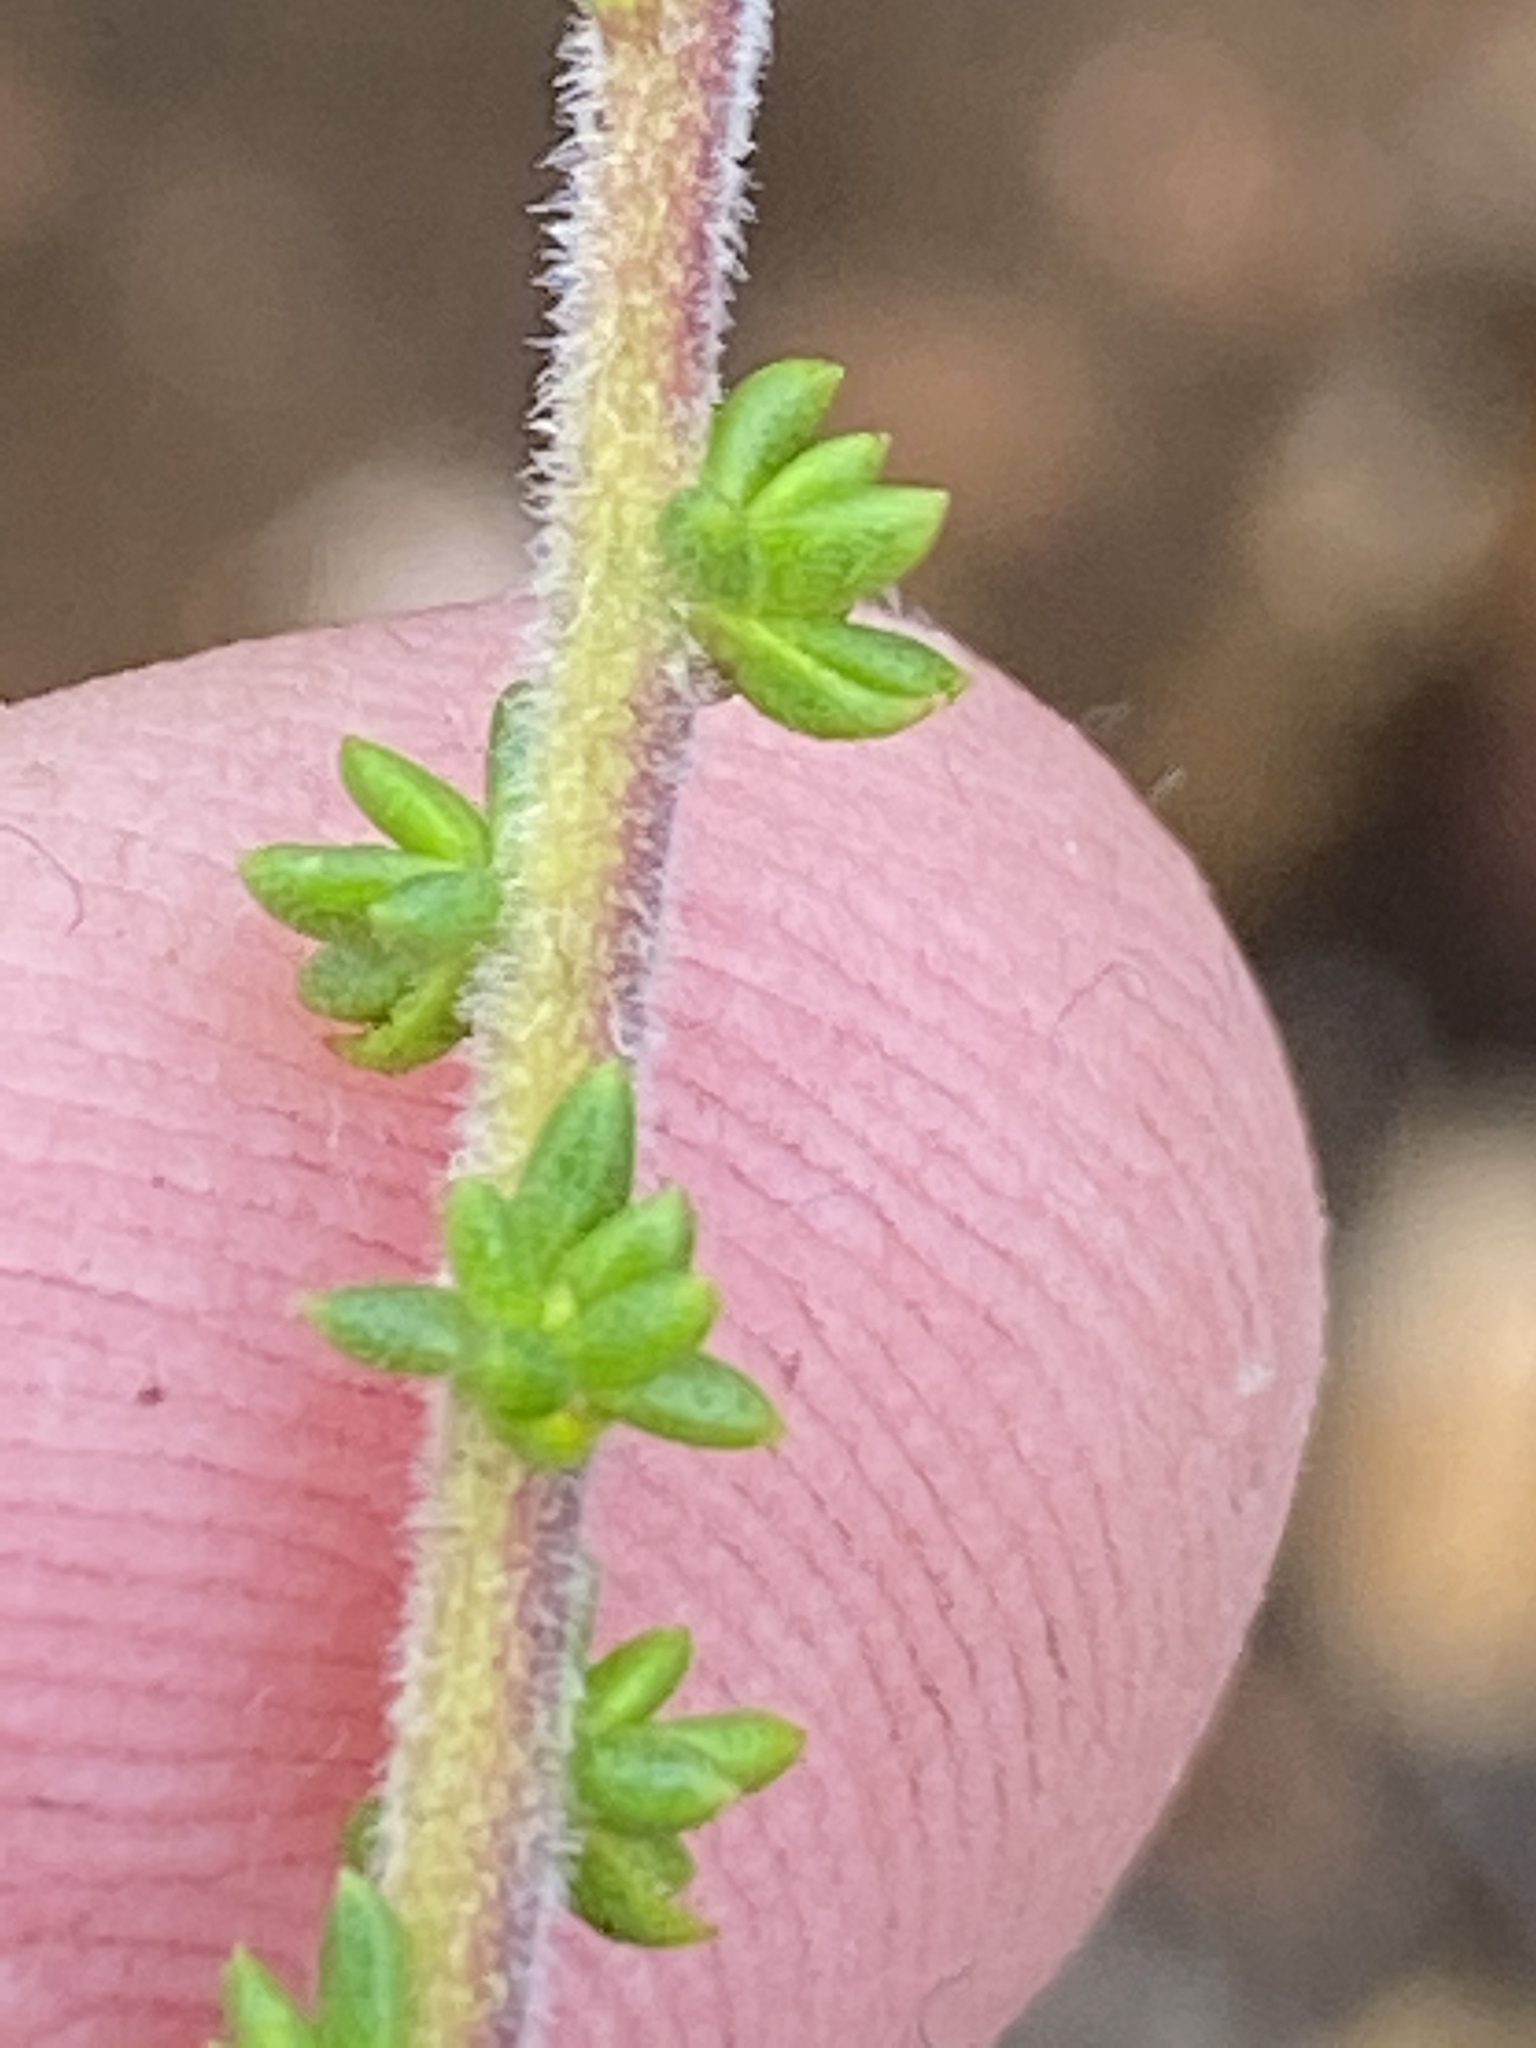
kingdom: Plantae
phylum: Tracheophyta
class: Magnoliopsida
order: Lamiales
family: Scrophulariaceae
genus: Selago
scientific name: Selago brevifolia
